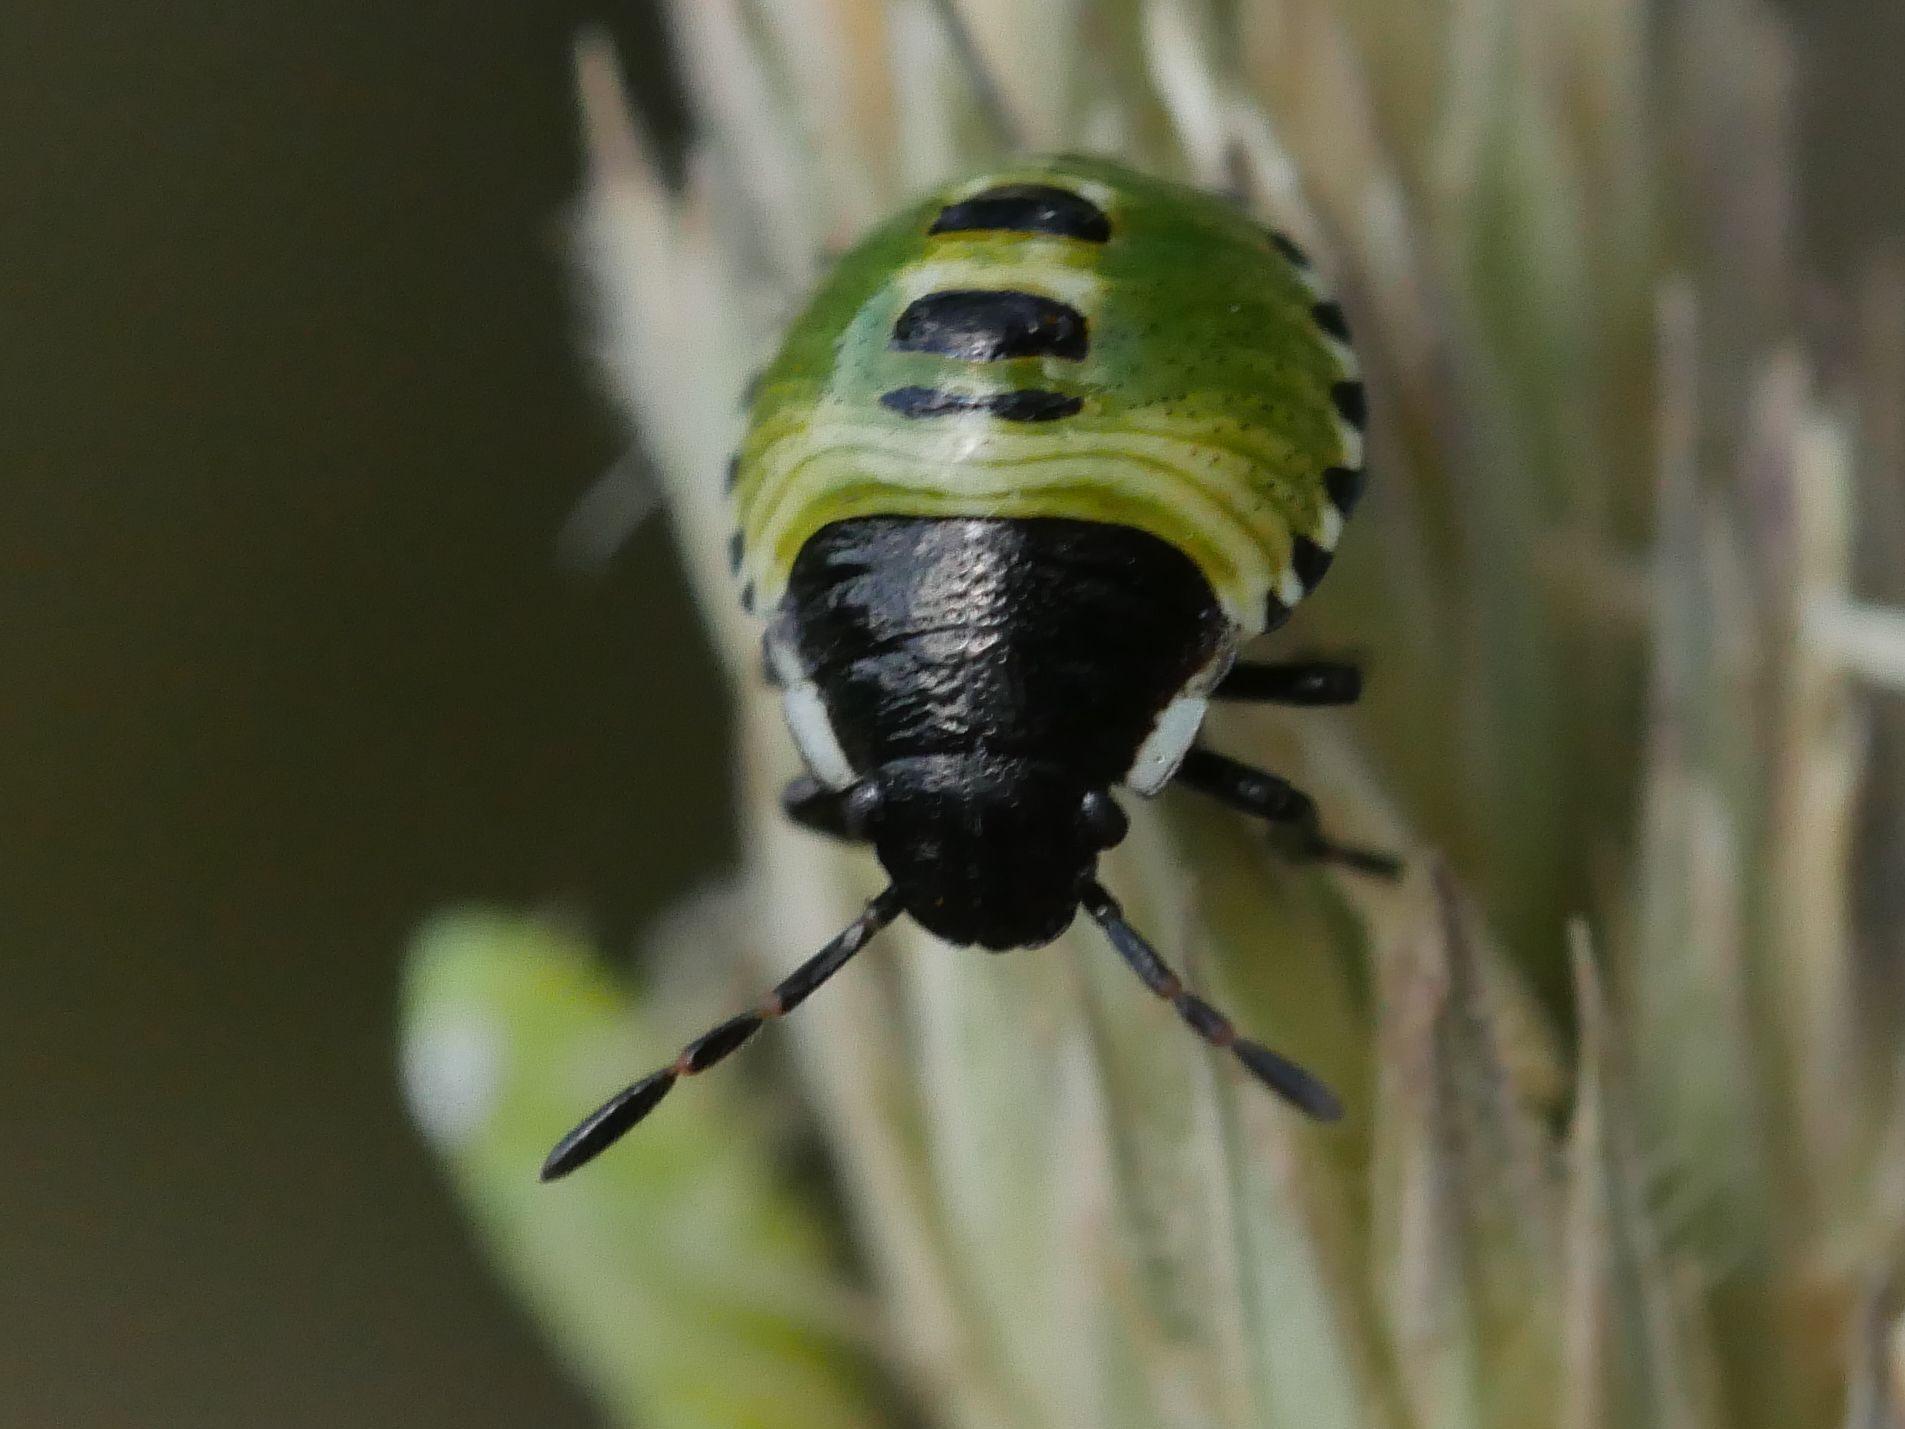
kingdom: Animalia
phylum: Arthropoda
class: Insecta
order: Hemiptera
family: Pentatomidae
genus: Palomena
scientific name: Palomena prasina
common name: Green shieldbug
